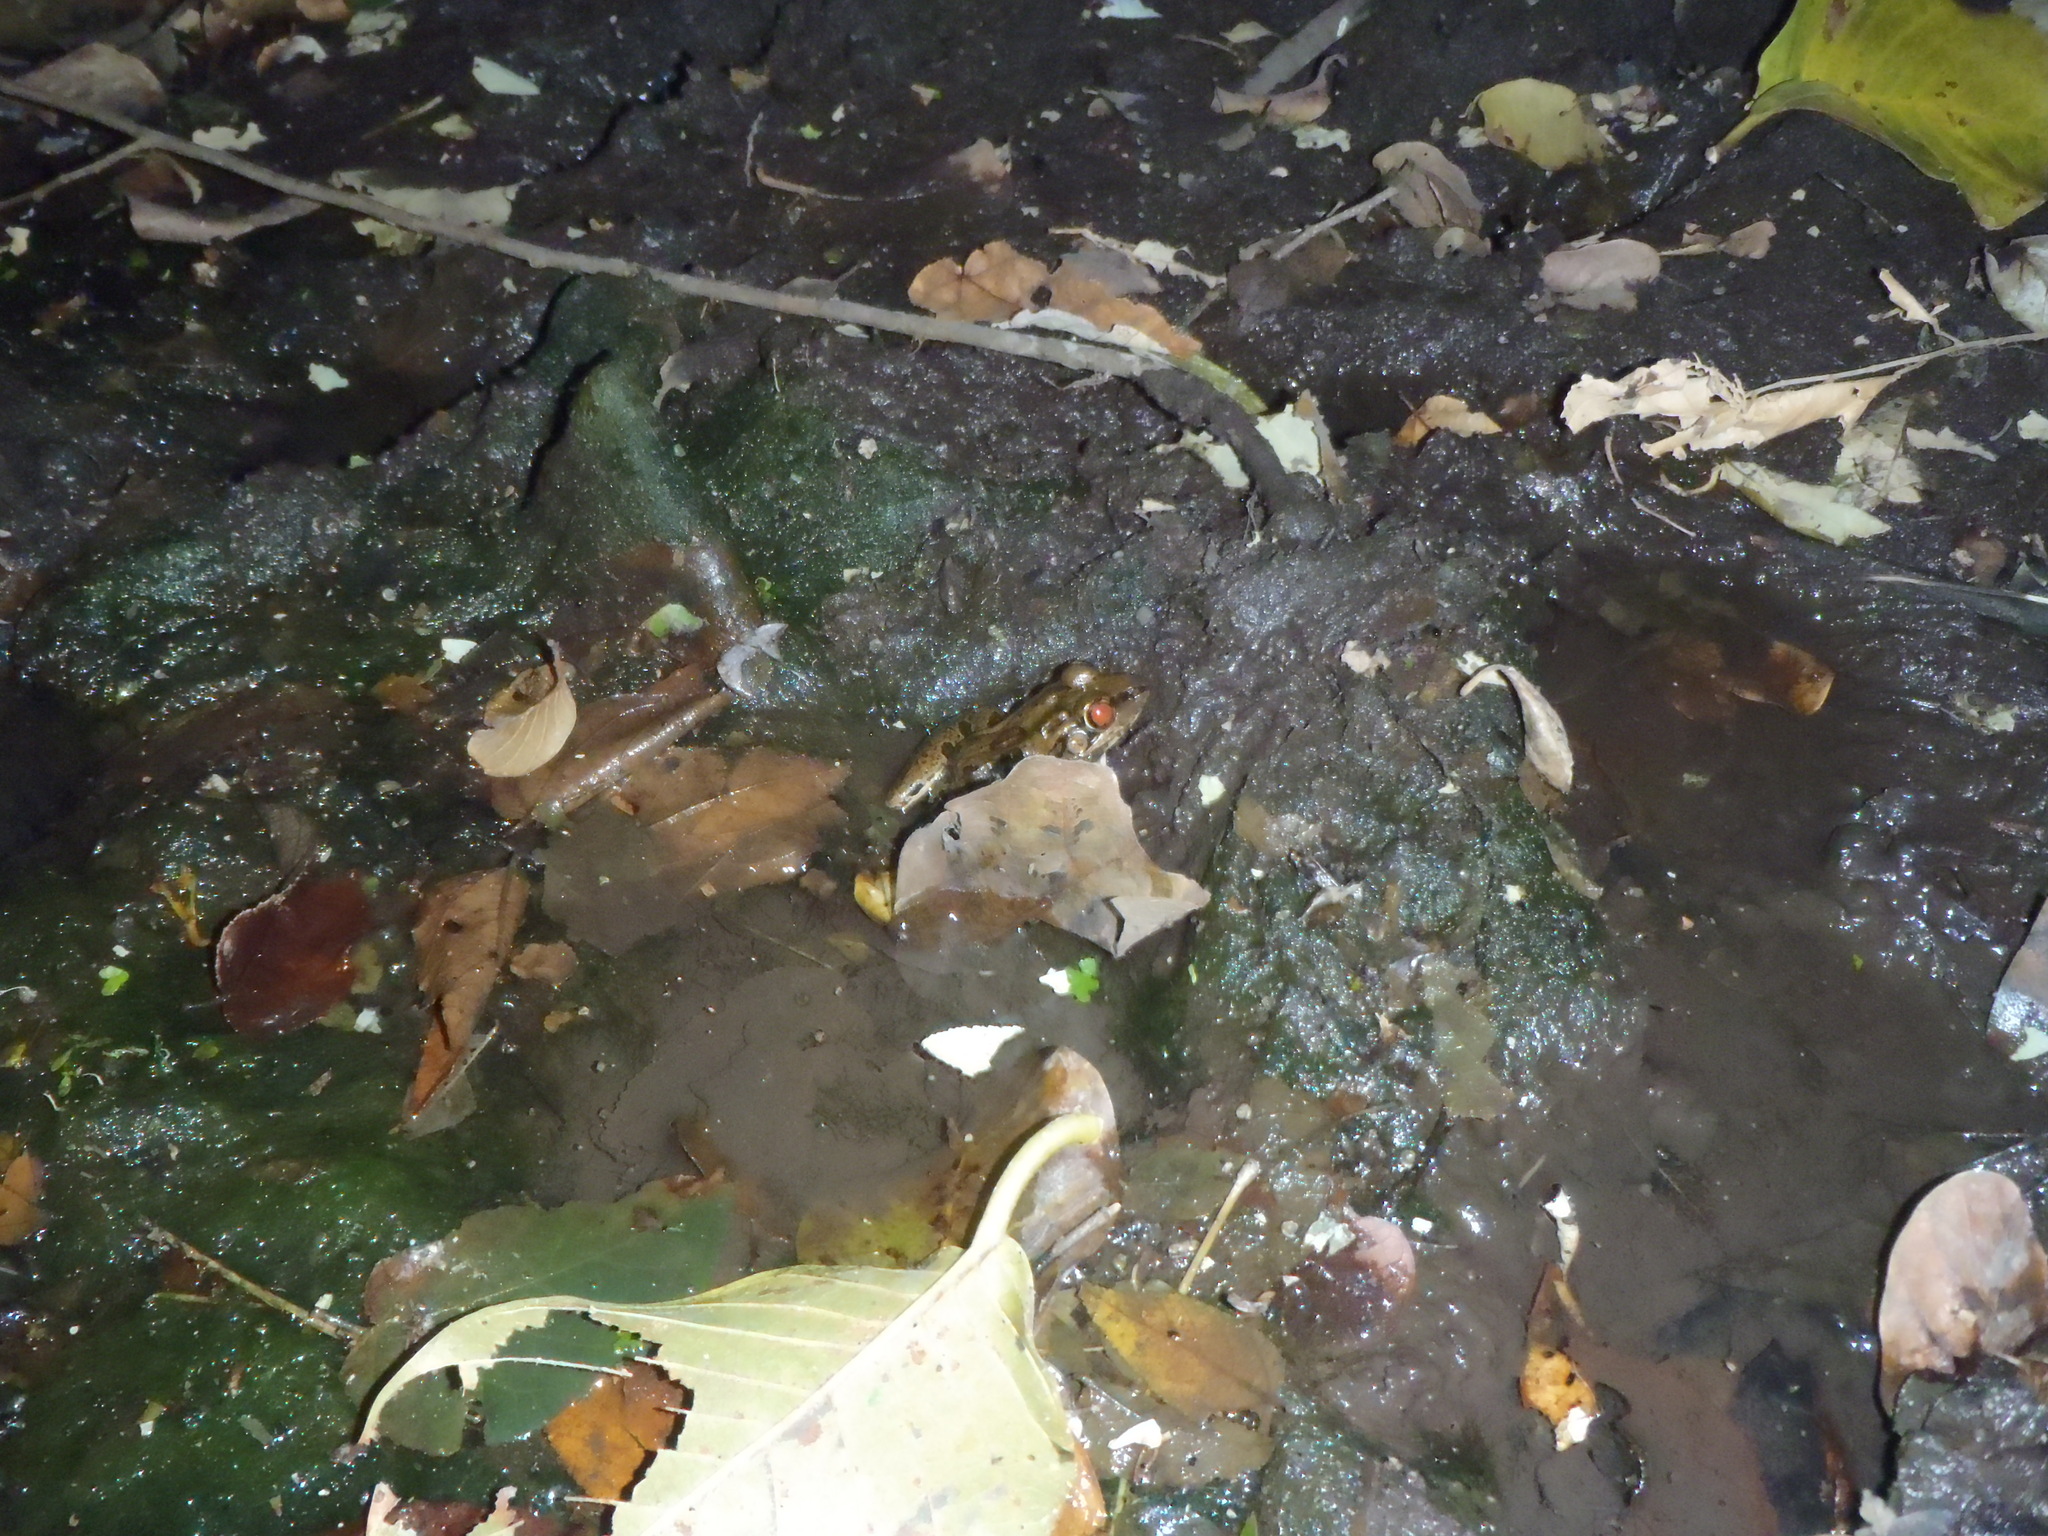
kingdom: Animalia
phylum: Chordata
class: Amphibia
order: Anura
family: Ranidae
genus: Lithobates
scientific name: Lithobates forreri
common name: Forrer's grass frog
